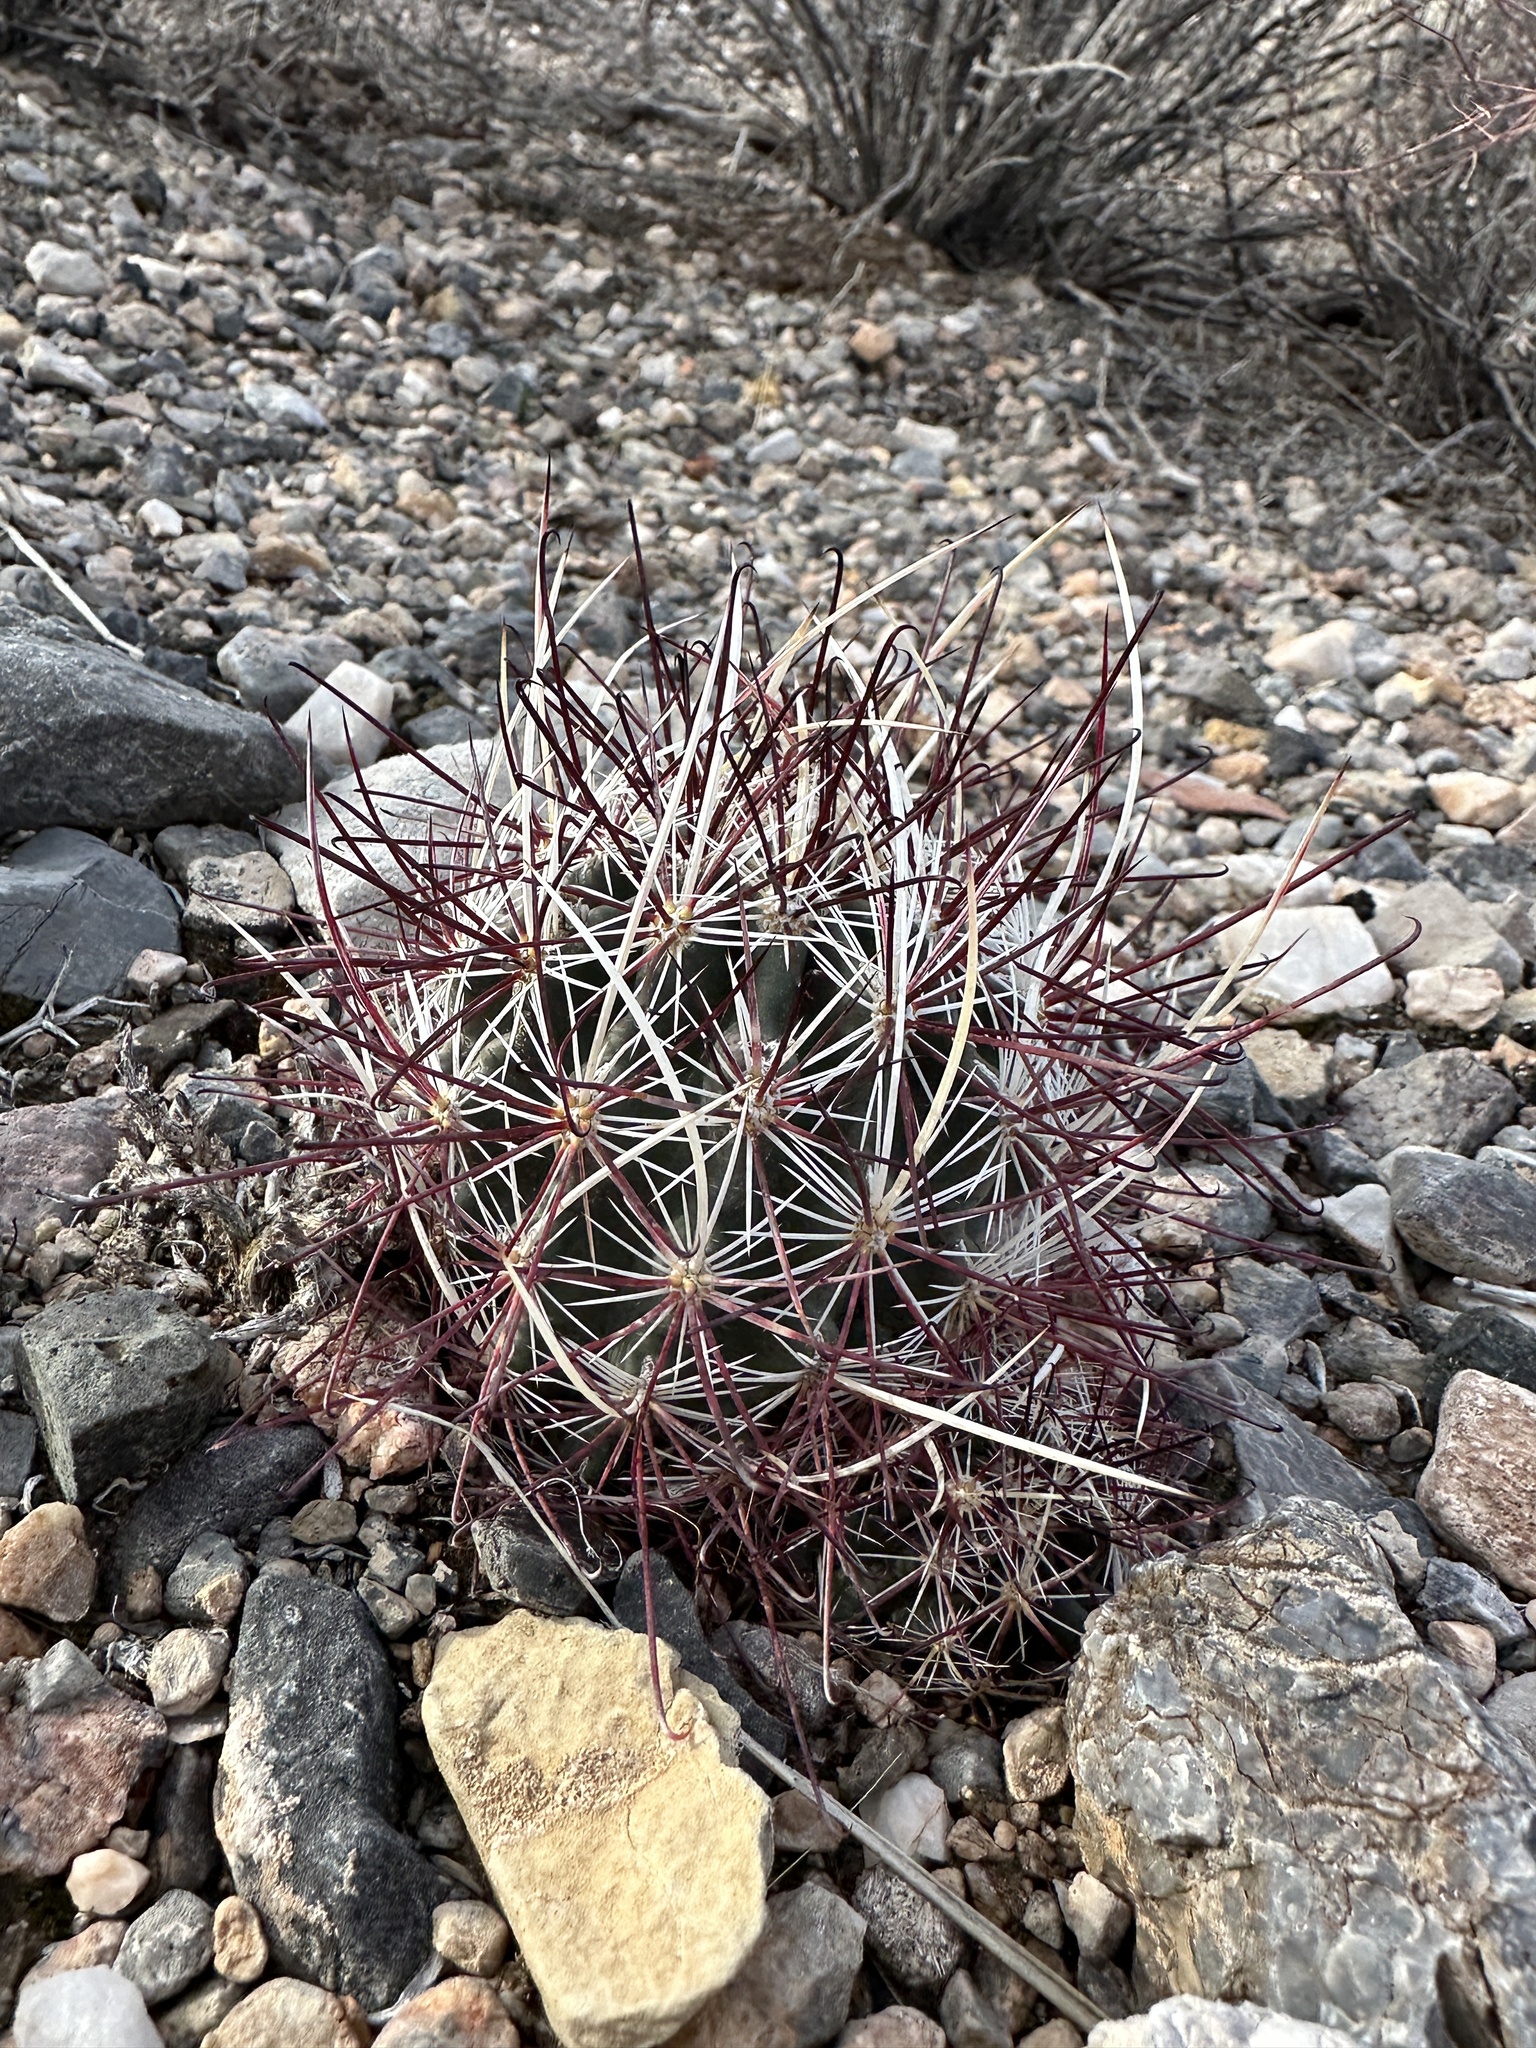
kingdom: Plantae
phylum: Tracheophyta
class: Magnoliopsida
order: Caryophyllales
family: Cactaceae
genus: Sclerocactus
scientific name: Sclerocactus polyancistrus
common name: Mohave fishhook cactus
